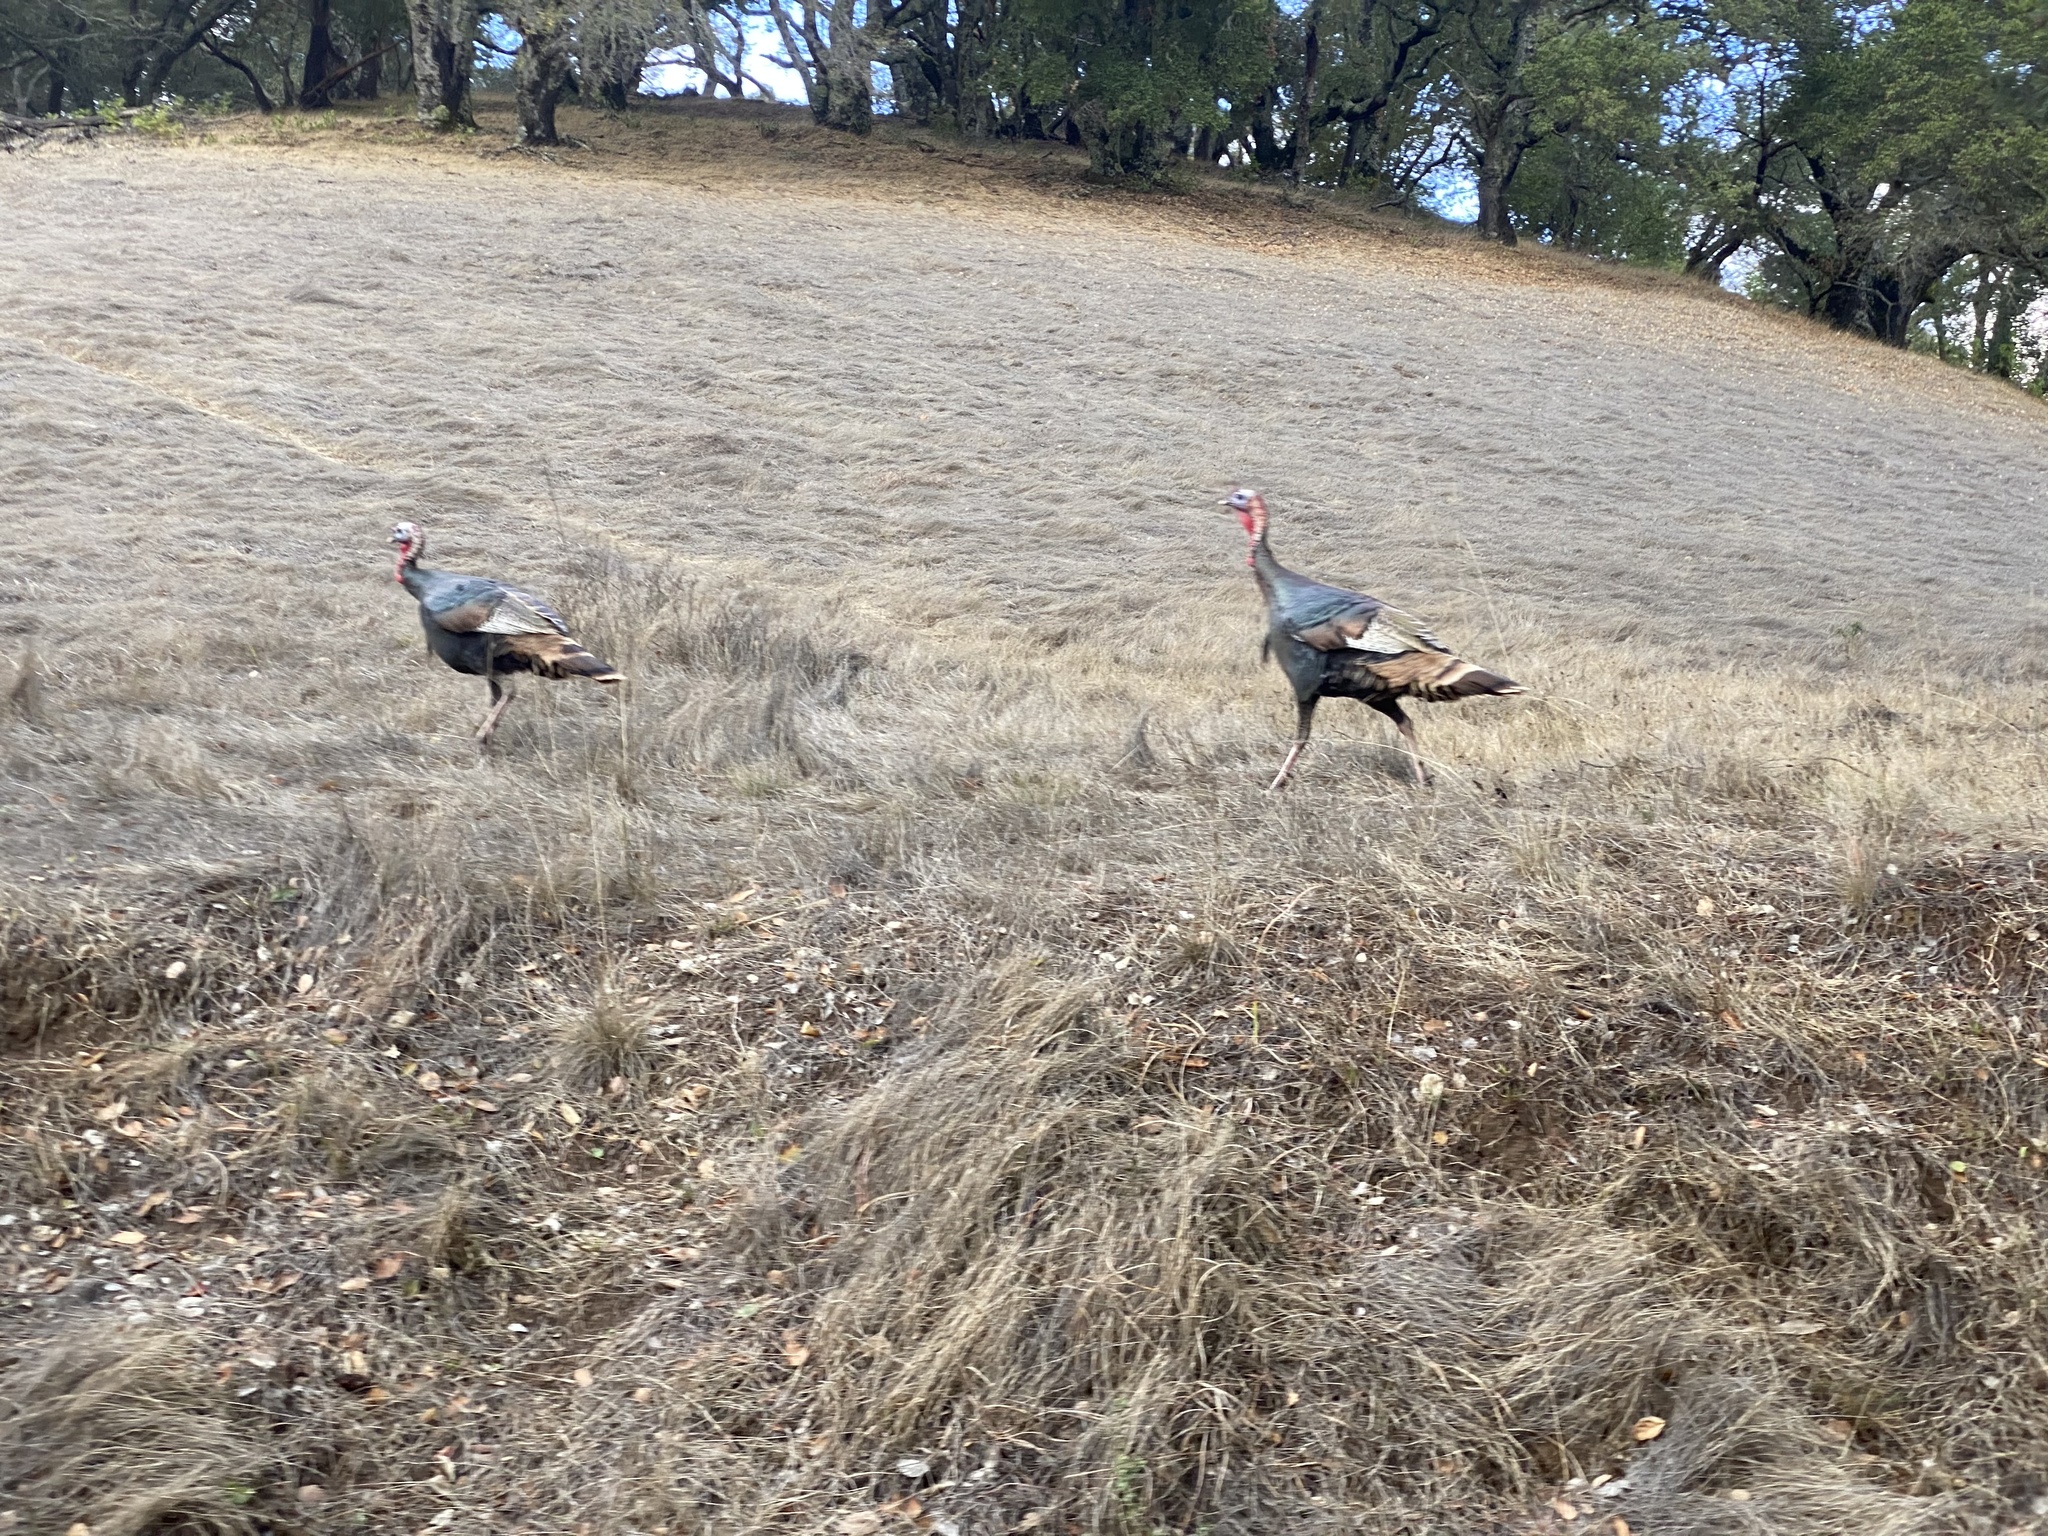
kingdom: Animalia
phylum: Chordata
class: Aves
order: Galliformes
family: Phasianidae
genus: Meleagris
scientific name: Meleagris gallopavo
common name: Wild turkey
